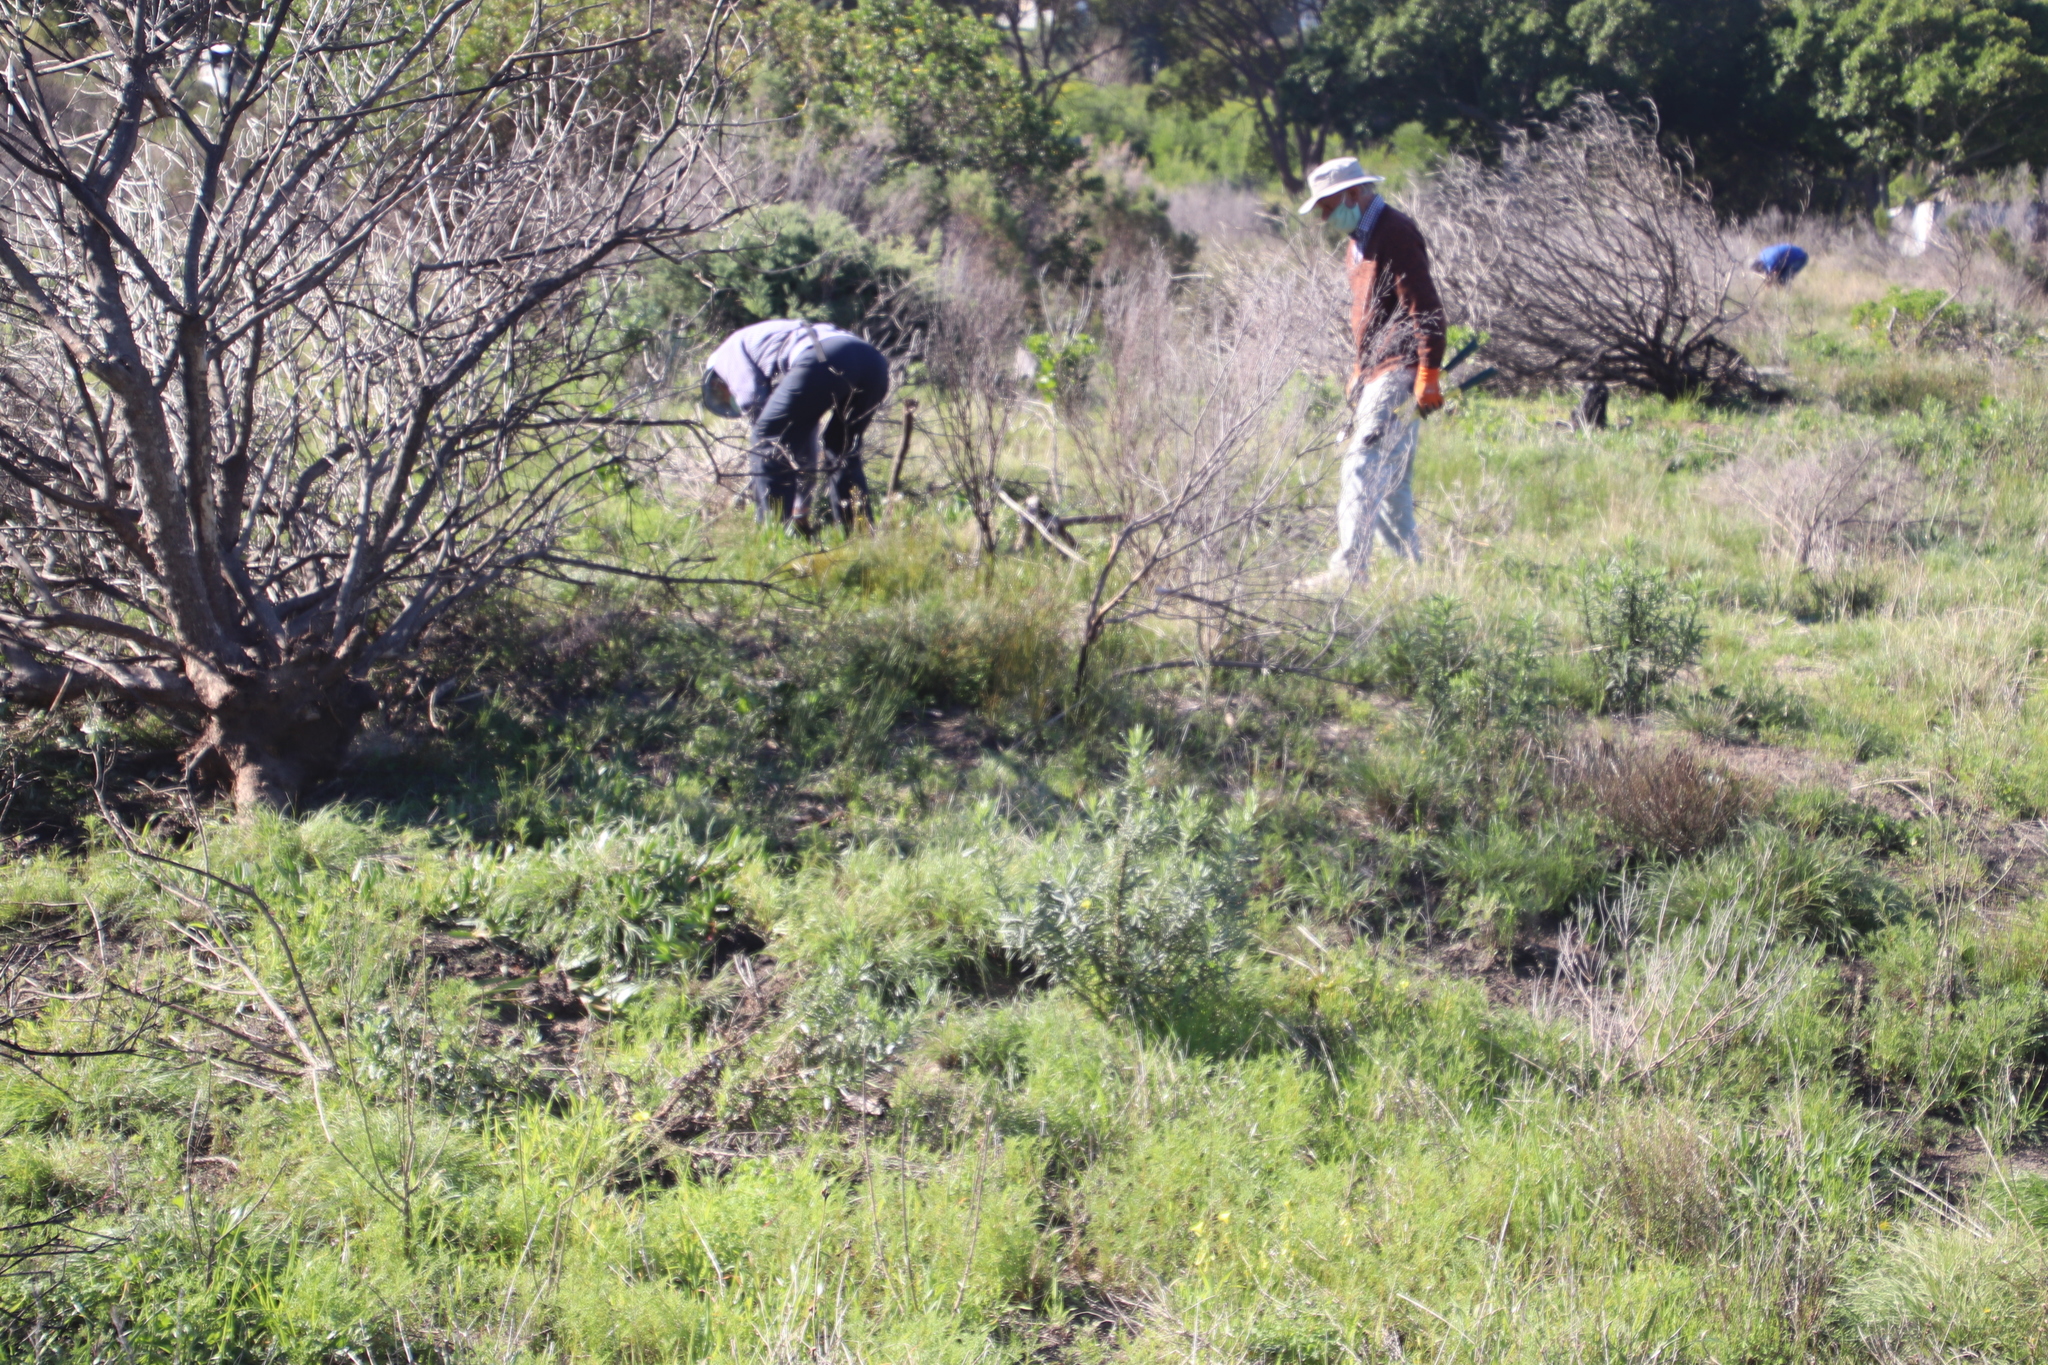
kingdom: Plantae
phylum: Tracheophyta
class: Magnoliopsida
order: Asterales
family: Asteraceae
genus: Senecio
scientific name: Senecio pterophorus
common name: Shoddy ragwort
